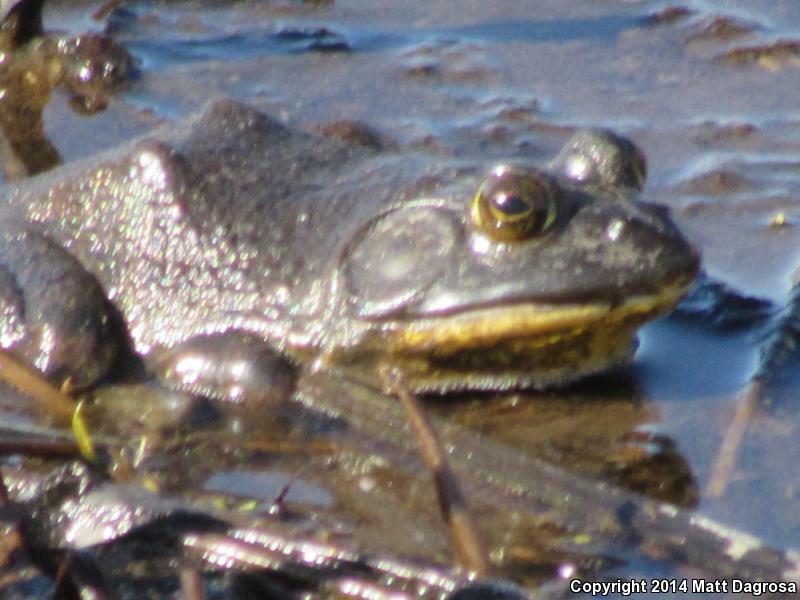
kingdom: Animalia
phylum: Chordata
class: Amphibia
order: Anura
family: Ranidae
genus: Lithobates
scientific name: Lithobates catesbeianus
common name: American bullfrog
